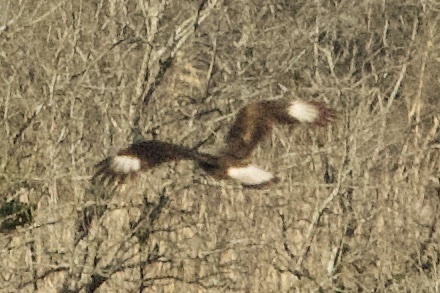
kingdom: Animalia
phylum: Chordata
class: Aves
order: Falconiformes
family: Falconidae
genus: Caracara
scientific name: Caracara plancus
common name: Southern caracara
